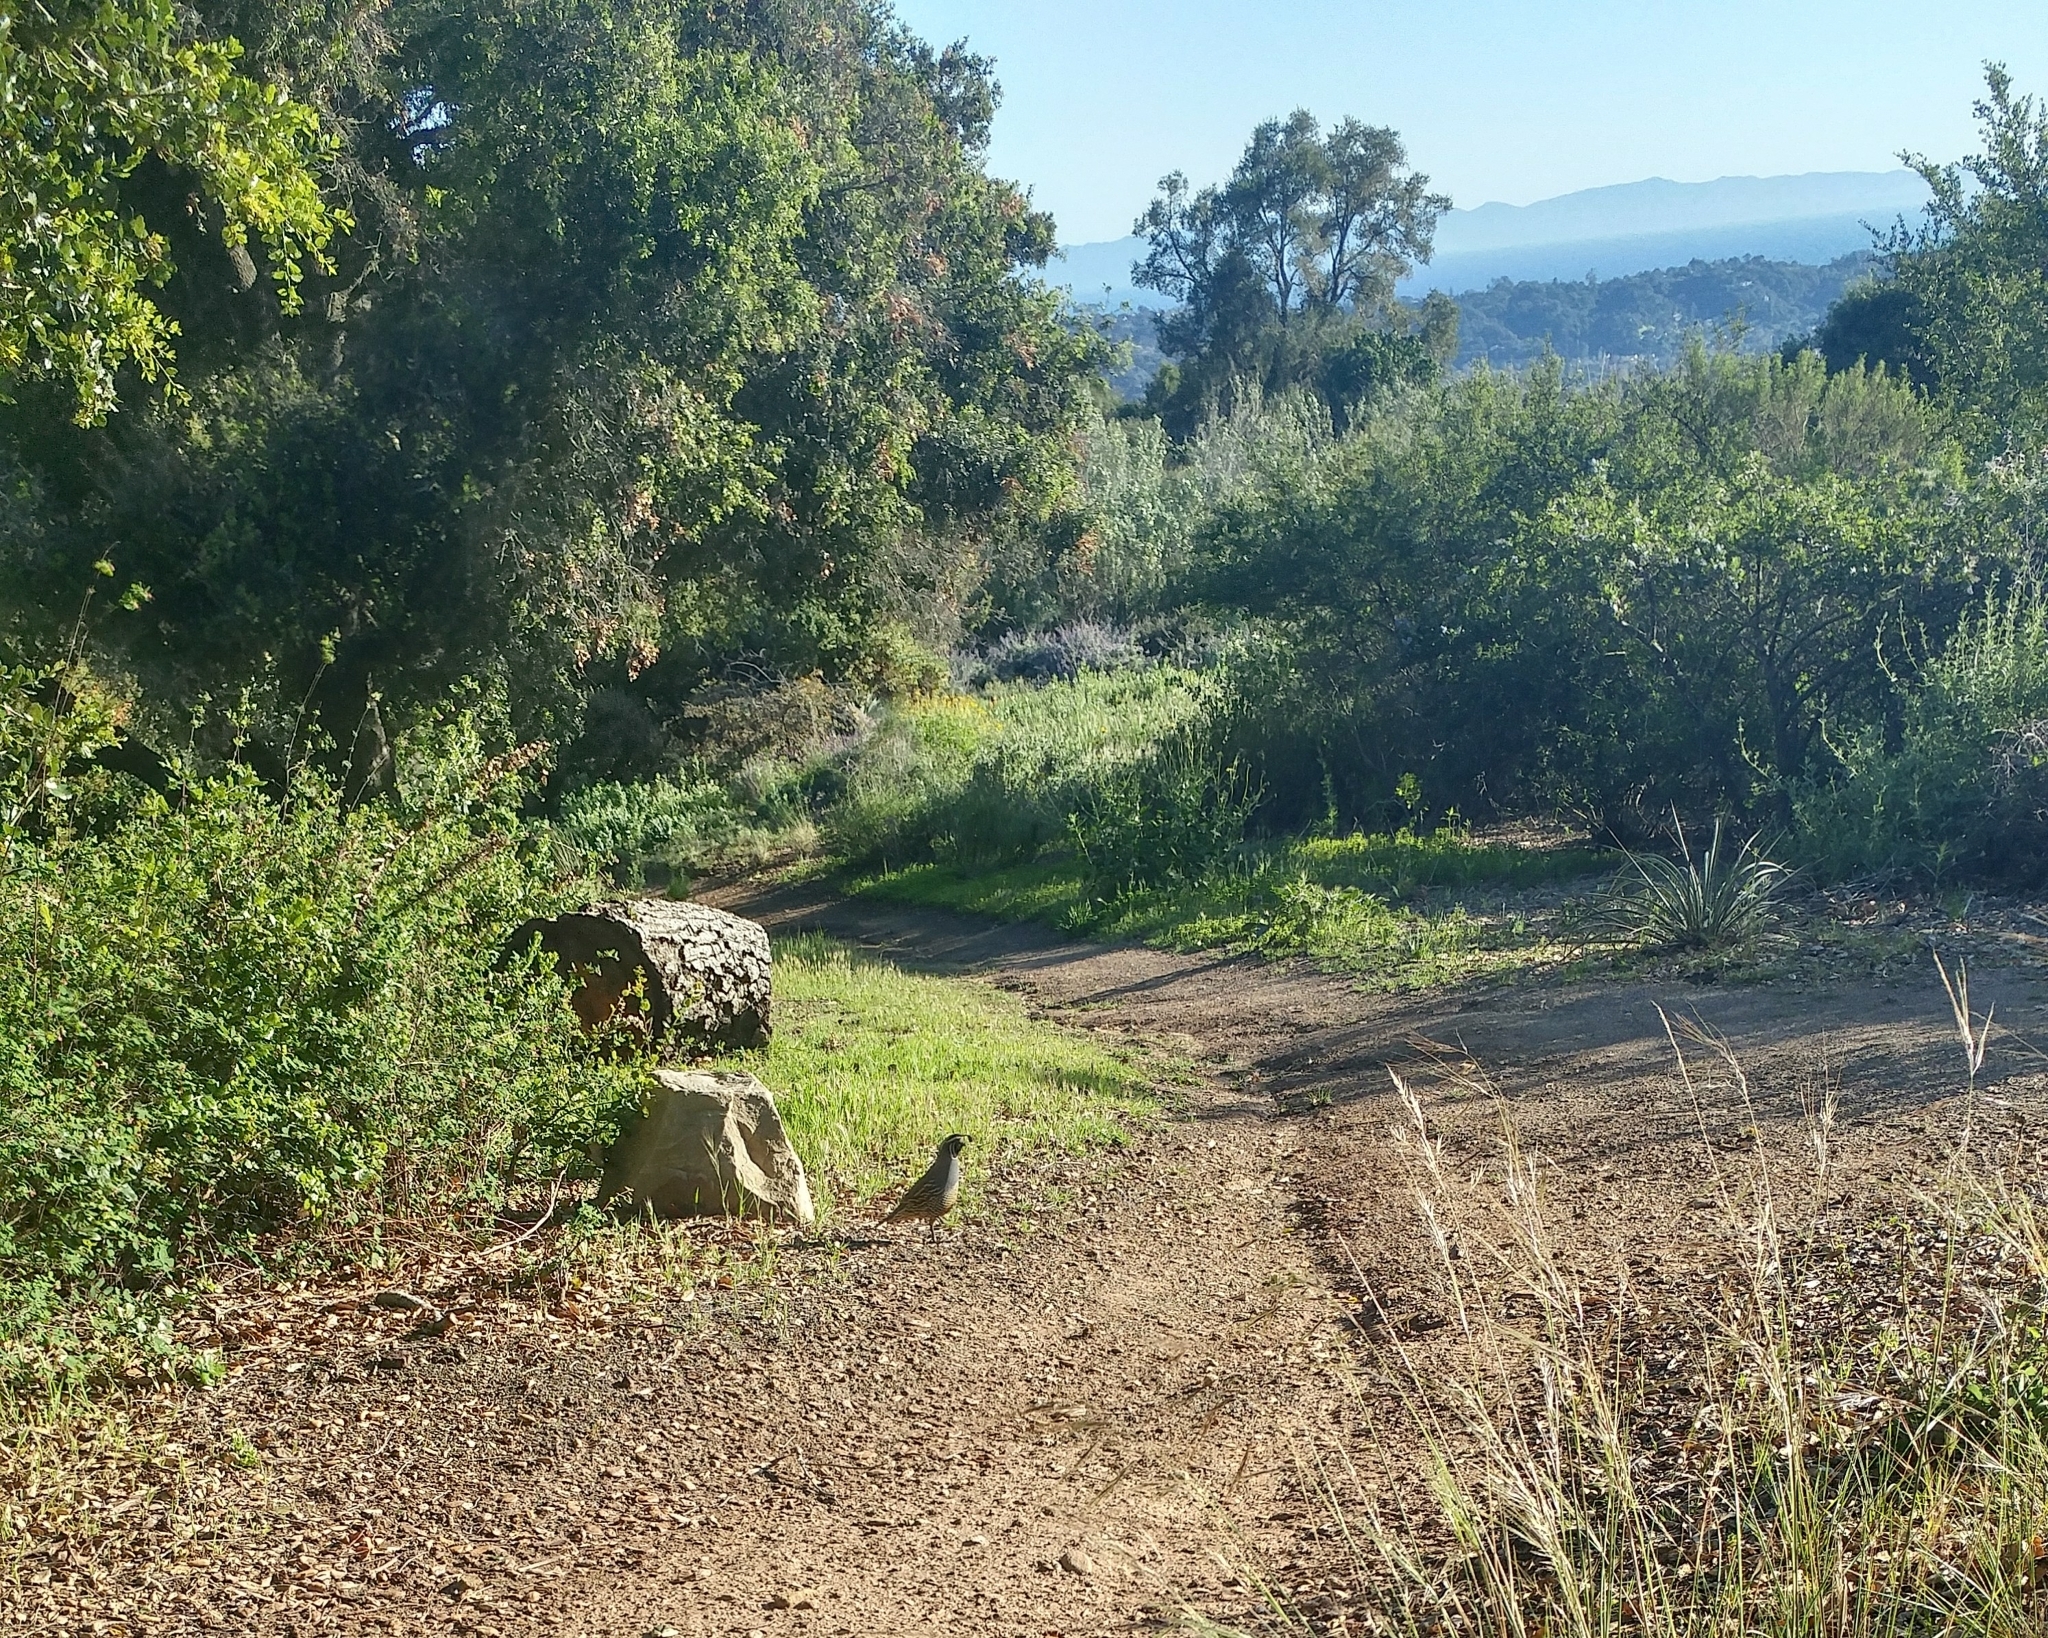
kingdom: Animalia
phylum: Chordata
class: Aves
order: Galliformes
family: Odontophoridae
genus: Callipepla
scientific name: Callipepla californica
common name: California quail
